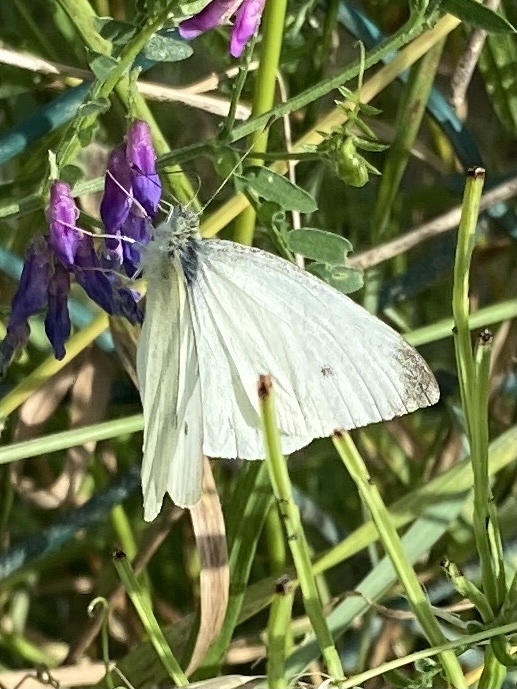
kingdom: Animalia
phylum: Arthropoda
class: Insecta
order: Lepidoptera
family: Pieridae
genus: Pieris
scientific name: Pieris rapae
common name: Small white
